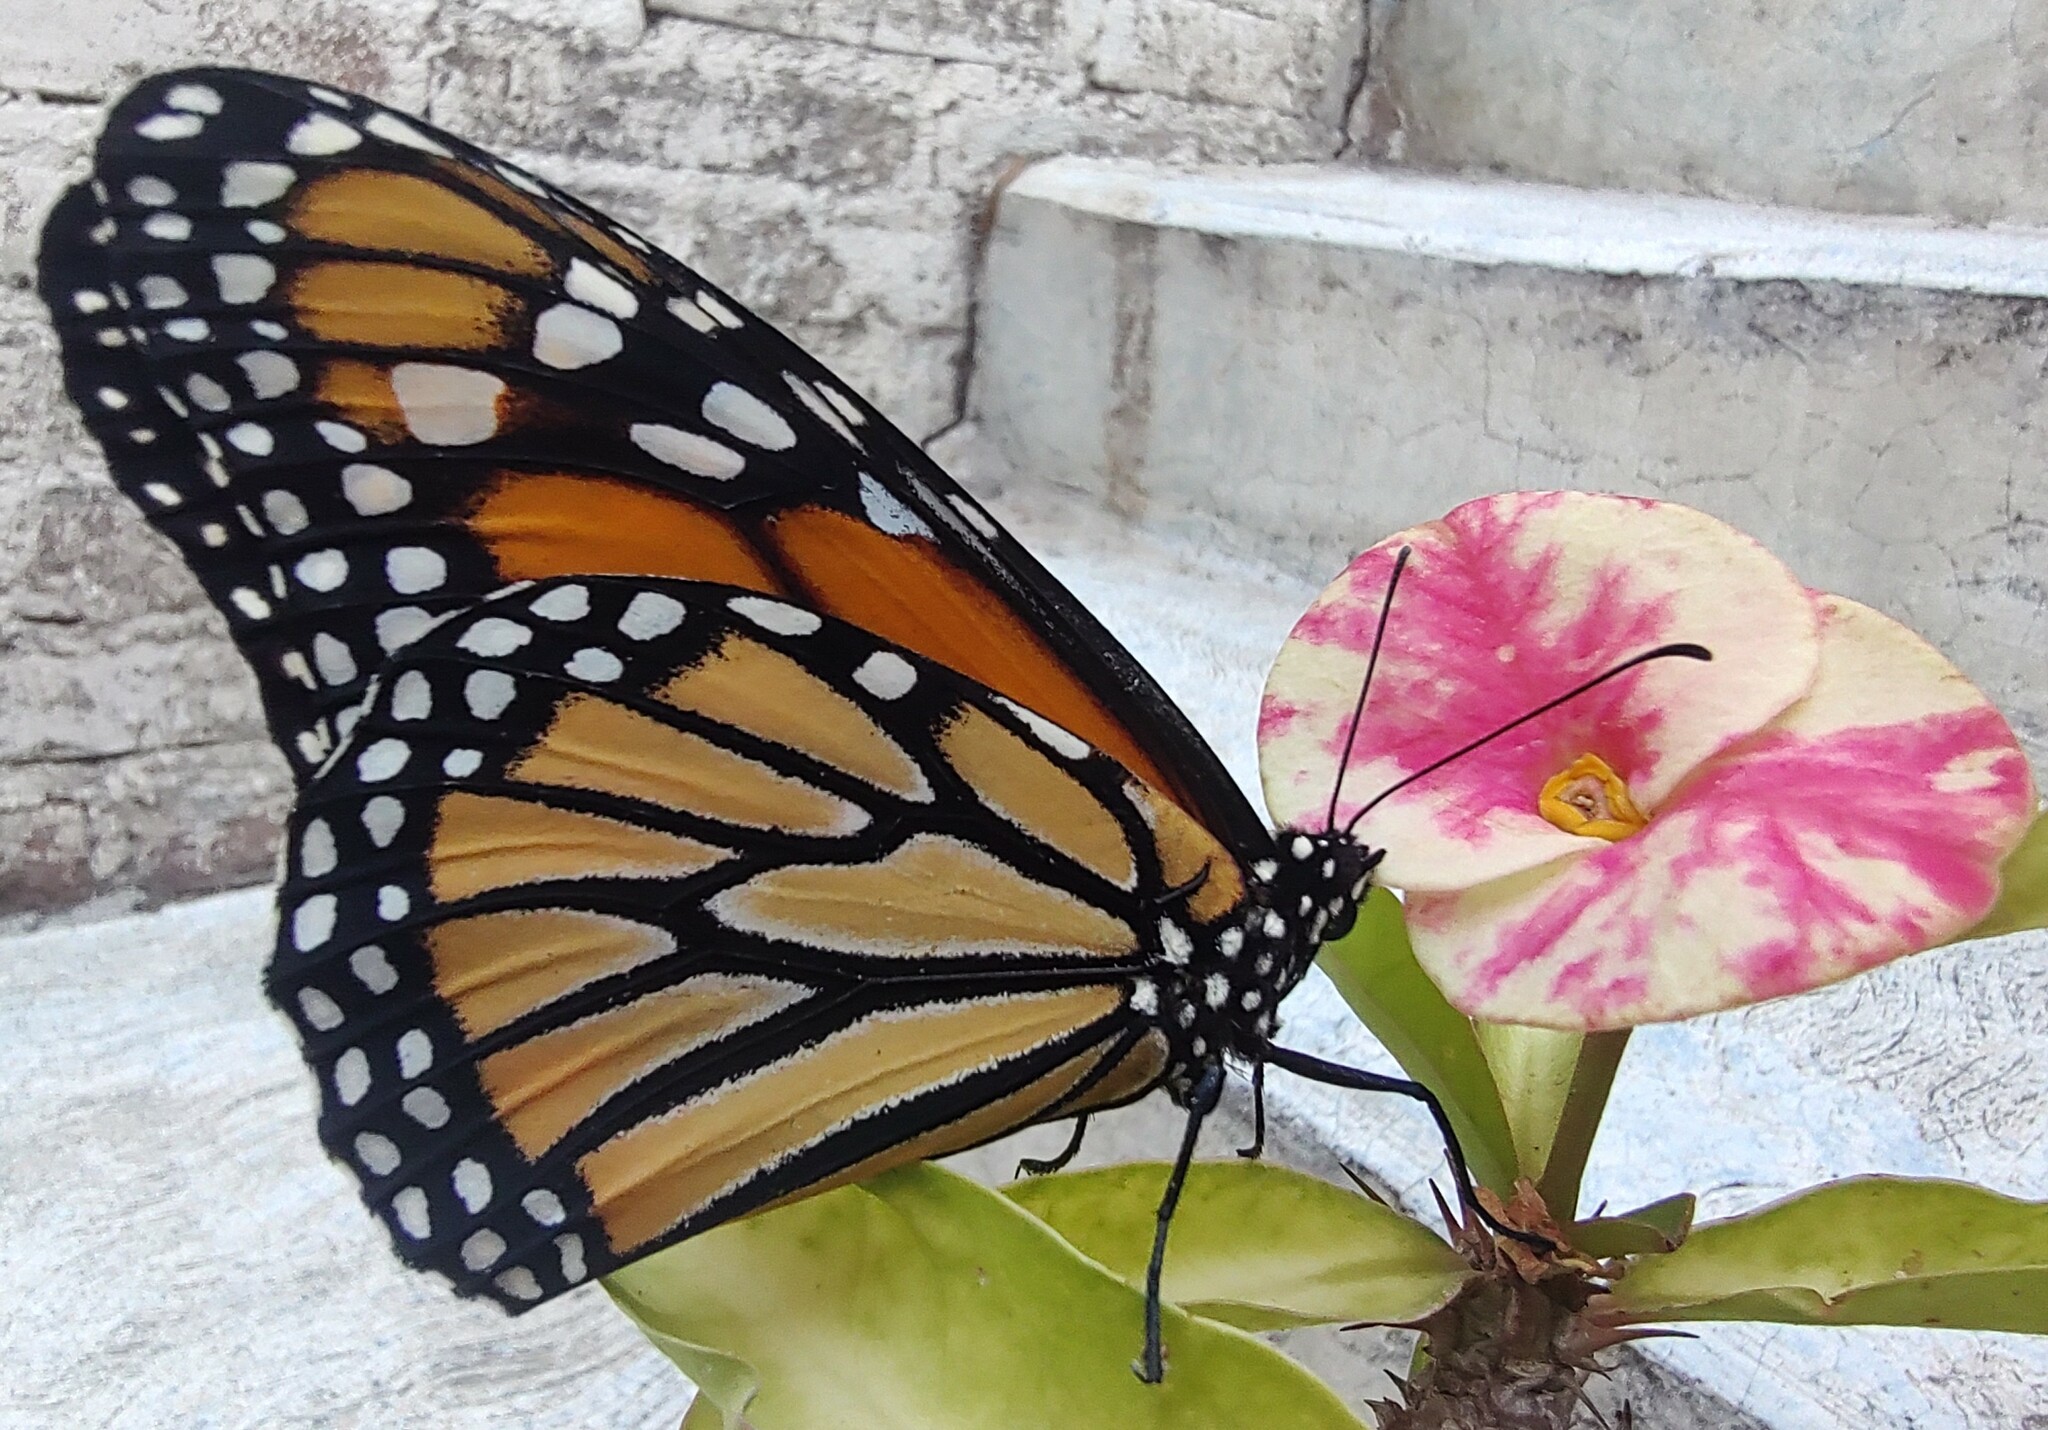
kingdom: Animalia
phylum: Arthropoda
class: Insecta
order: Lepidoptera
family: Nymphalidae
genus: Danaus
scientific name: Danaus plexippus
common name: Monarch
